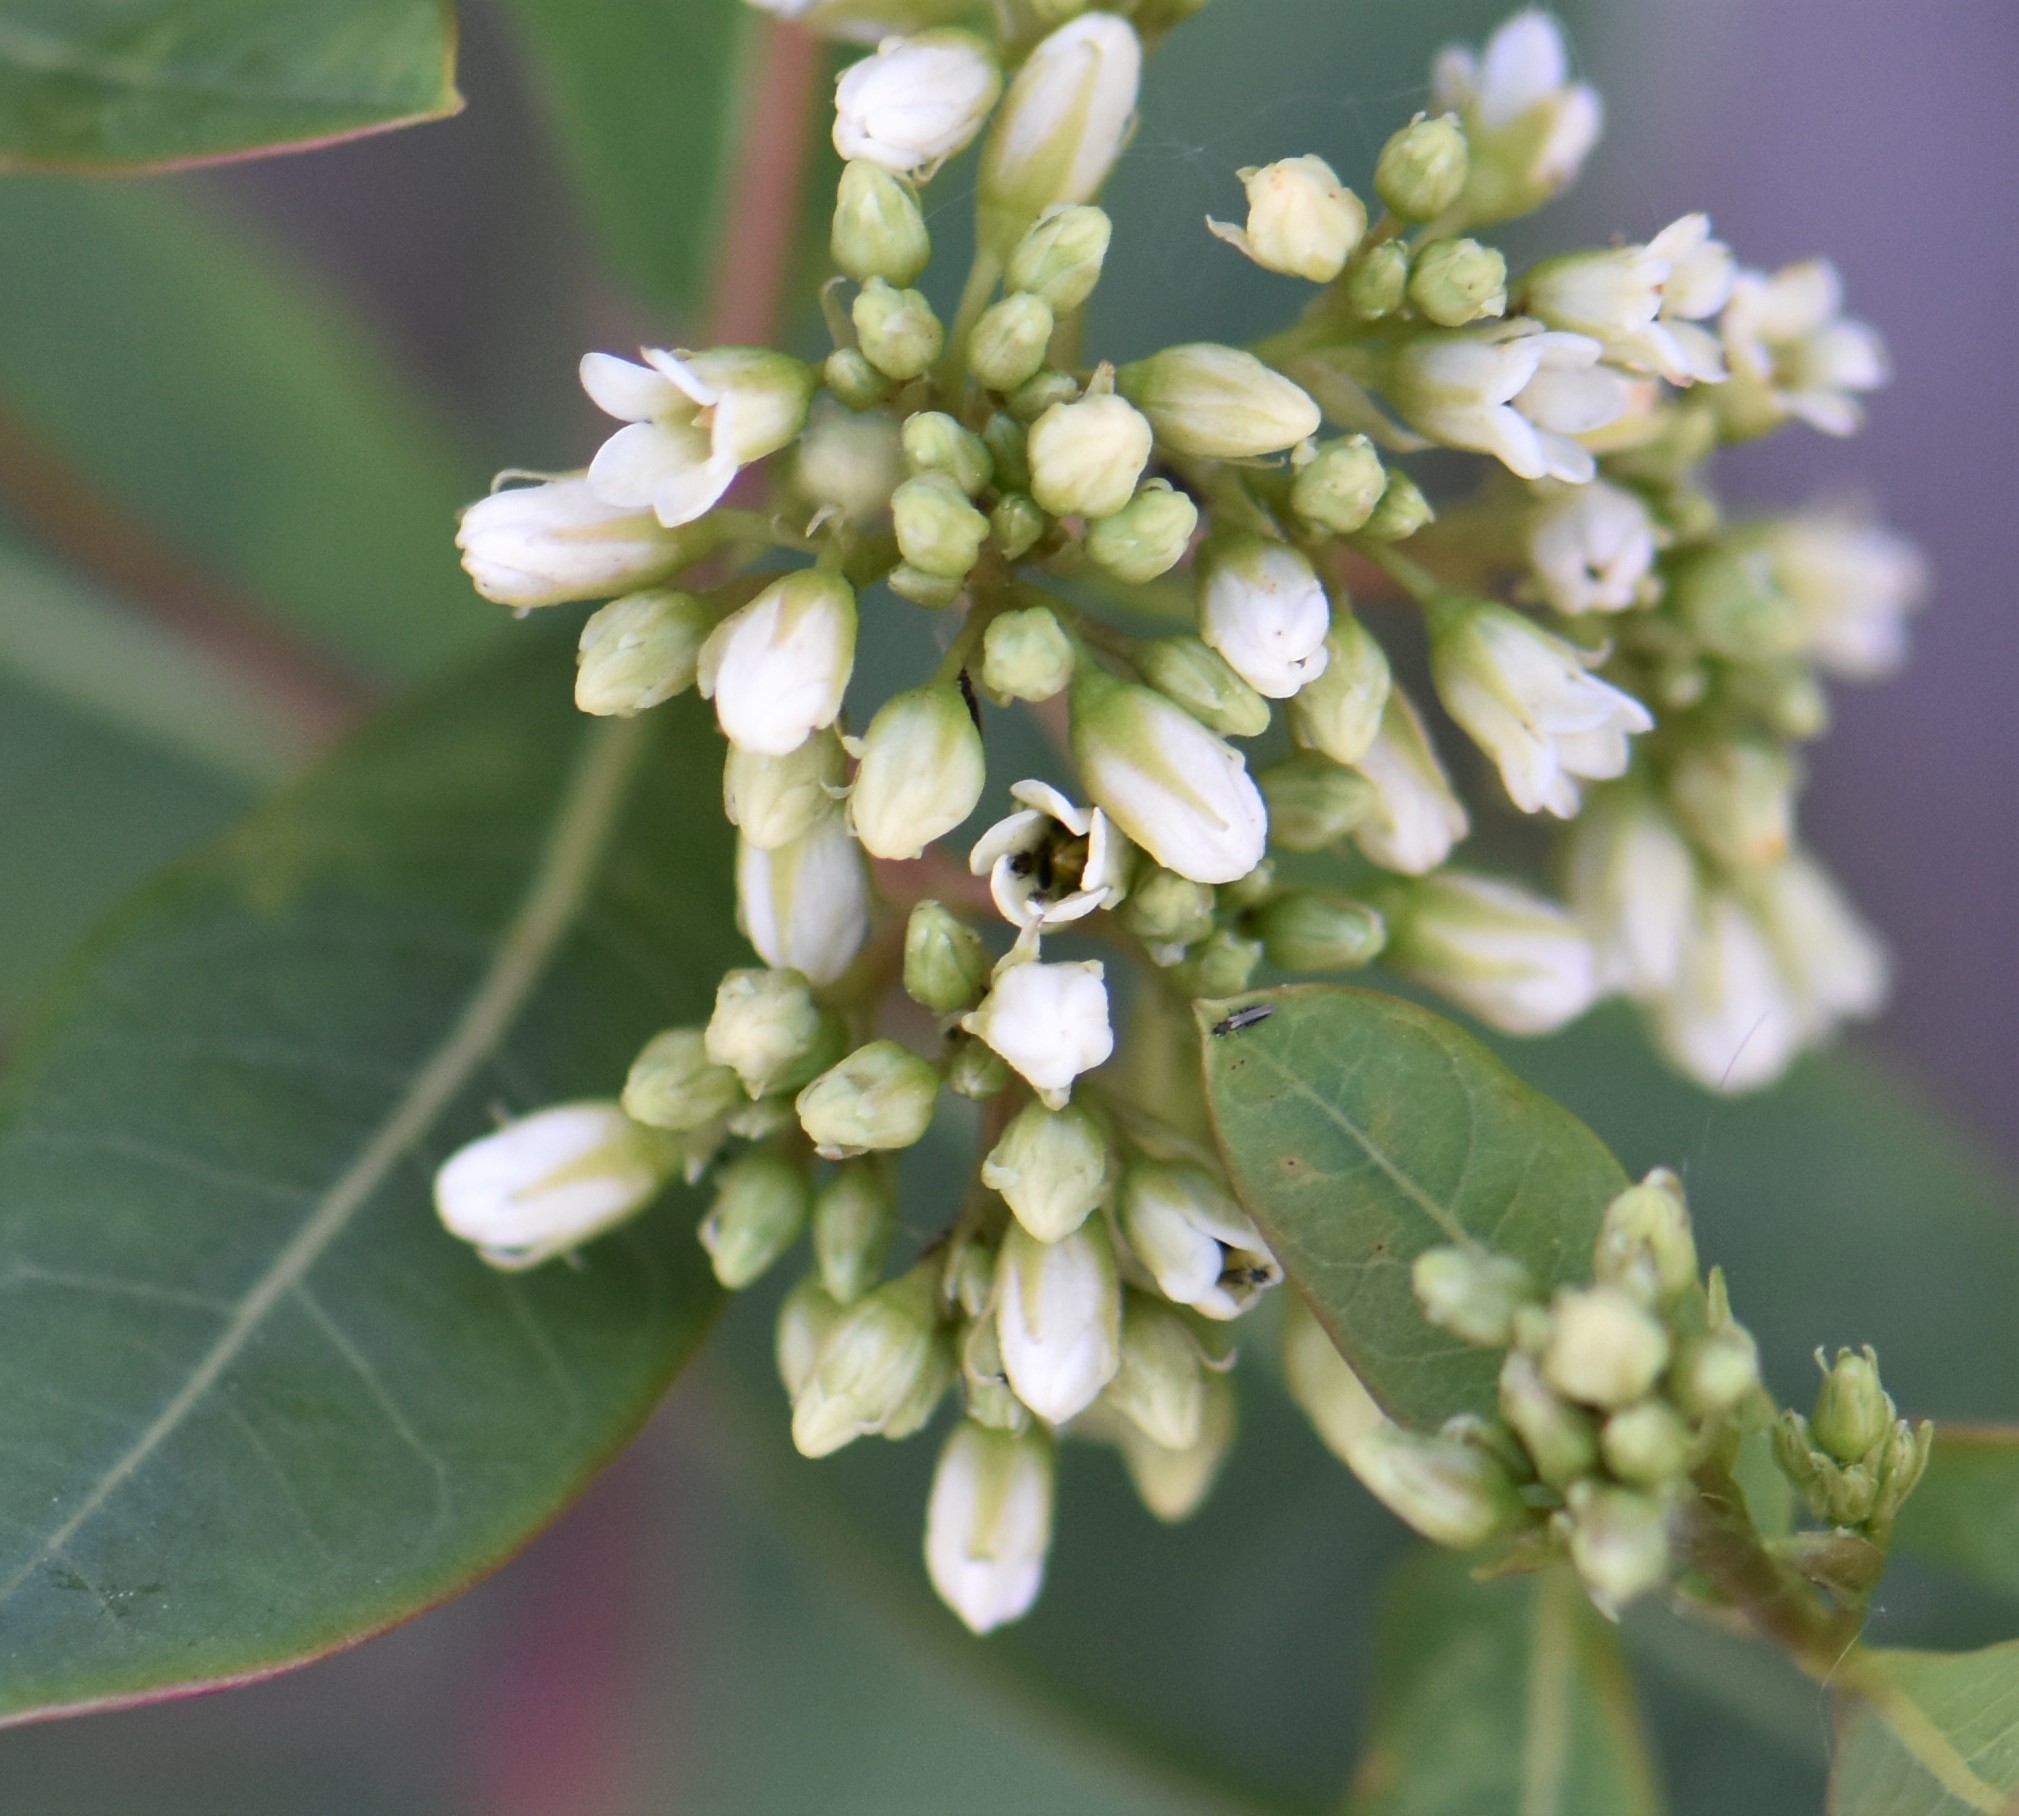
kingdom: Plantae
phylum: Tracheophyta
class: Magnoliopsida
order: Gentianales
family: Apocynaceae
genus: Apocynum
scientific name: Apocynum cannabinum
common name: Hemp dogbane
